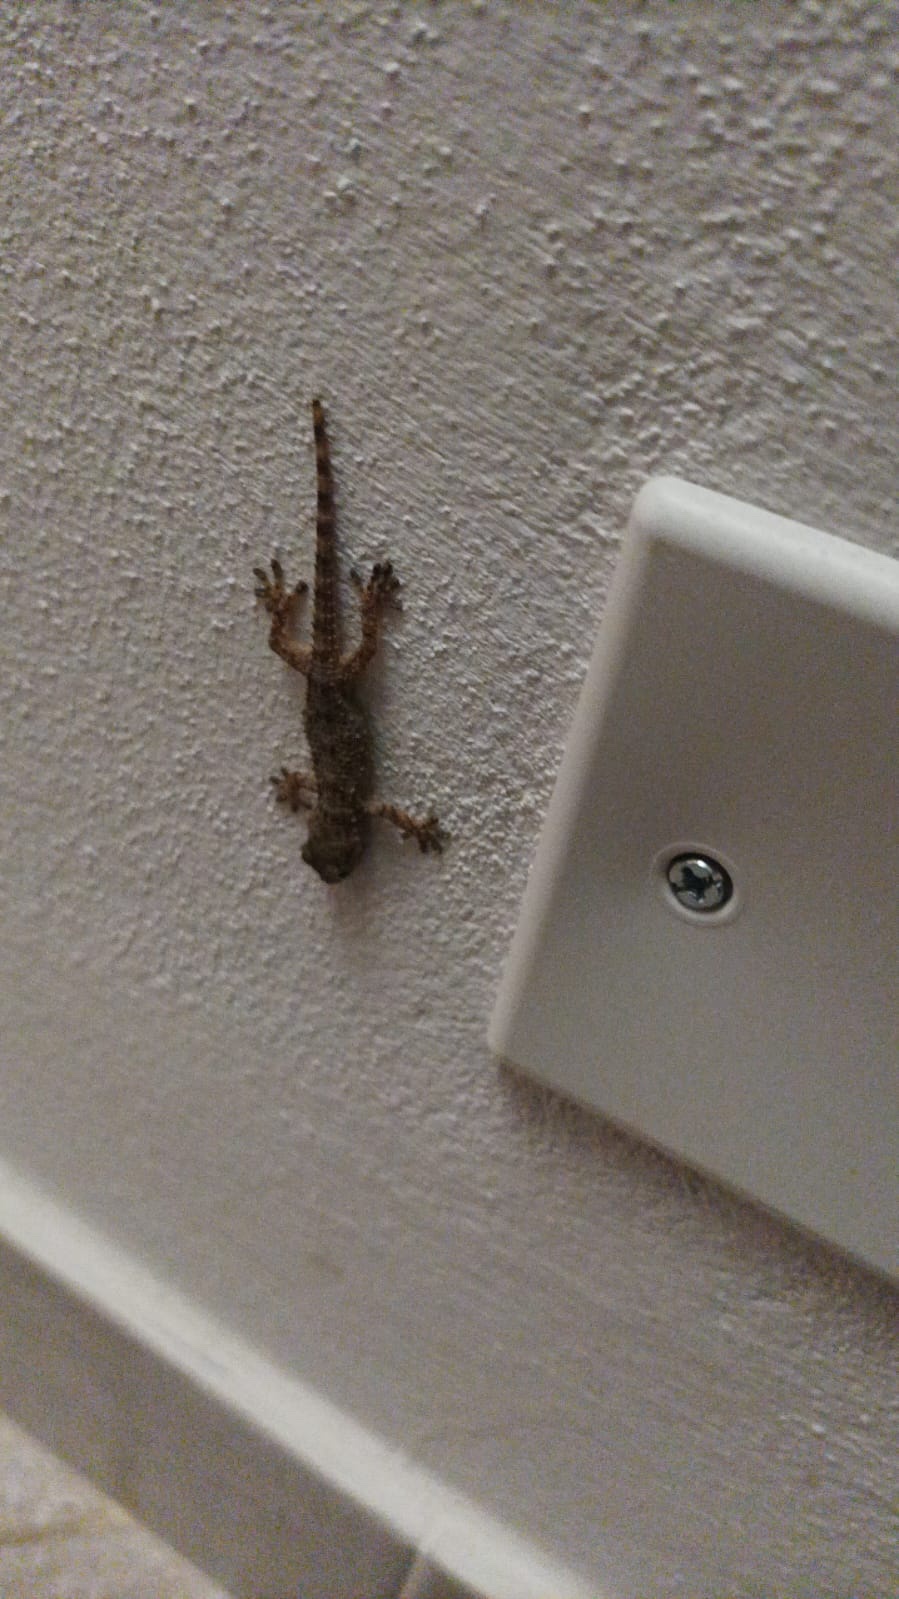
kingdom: Animalia
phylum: Chordata
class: Squamata
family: Phyllodactylidae
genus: Tarentola
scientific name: Tarentola mauritanica
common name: Moorish gecko
